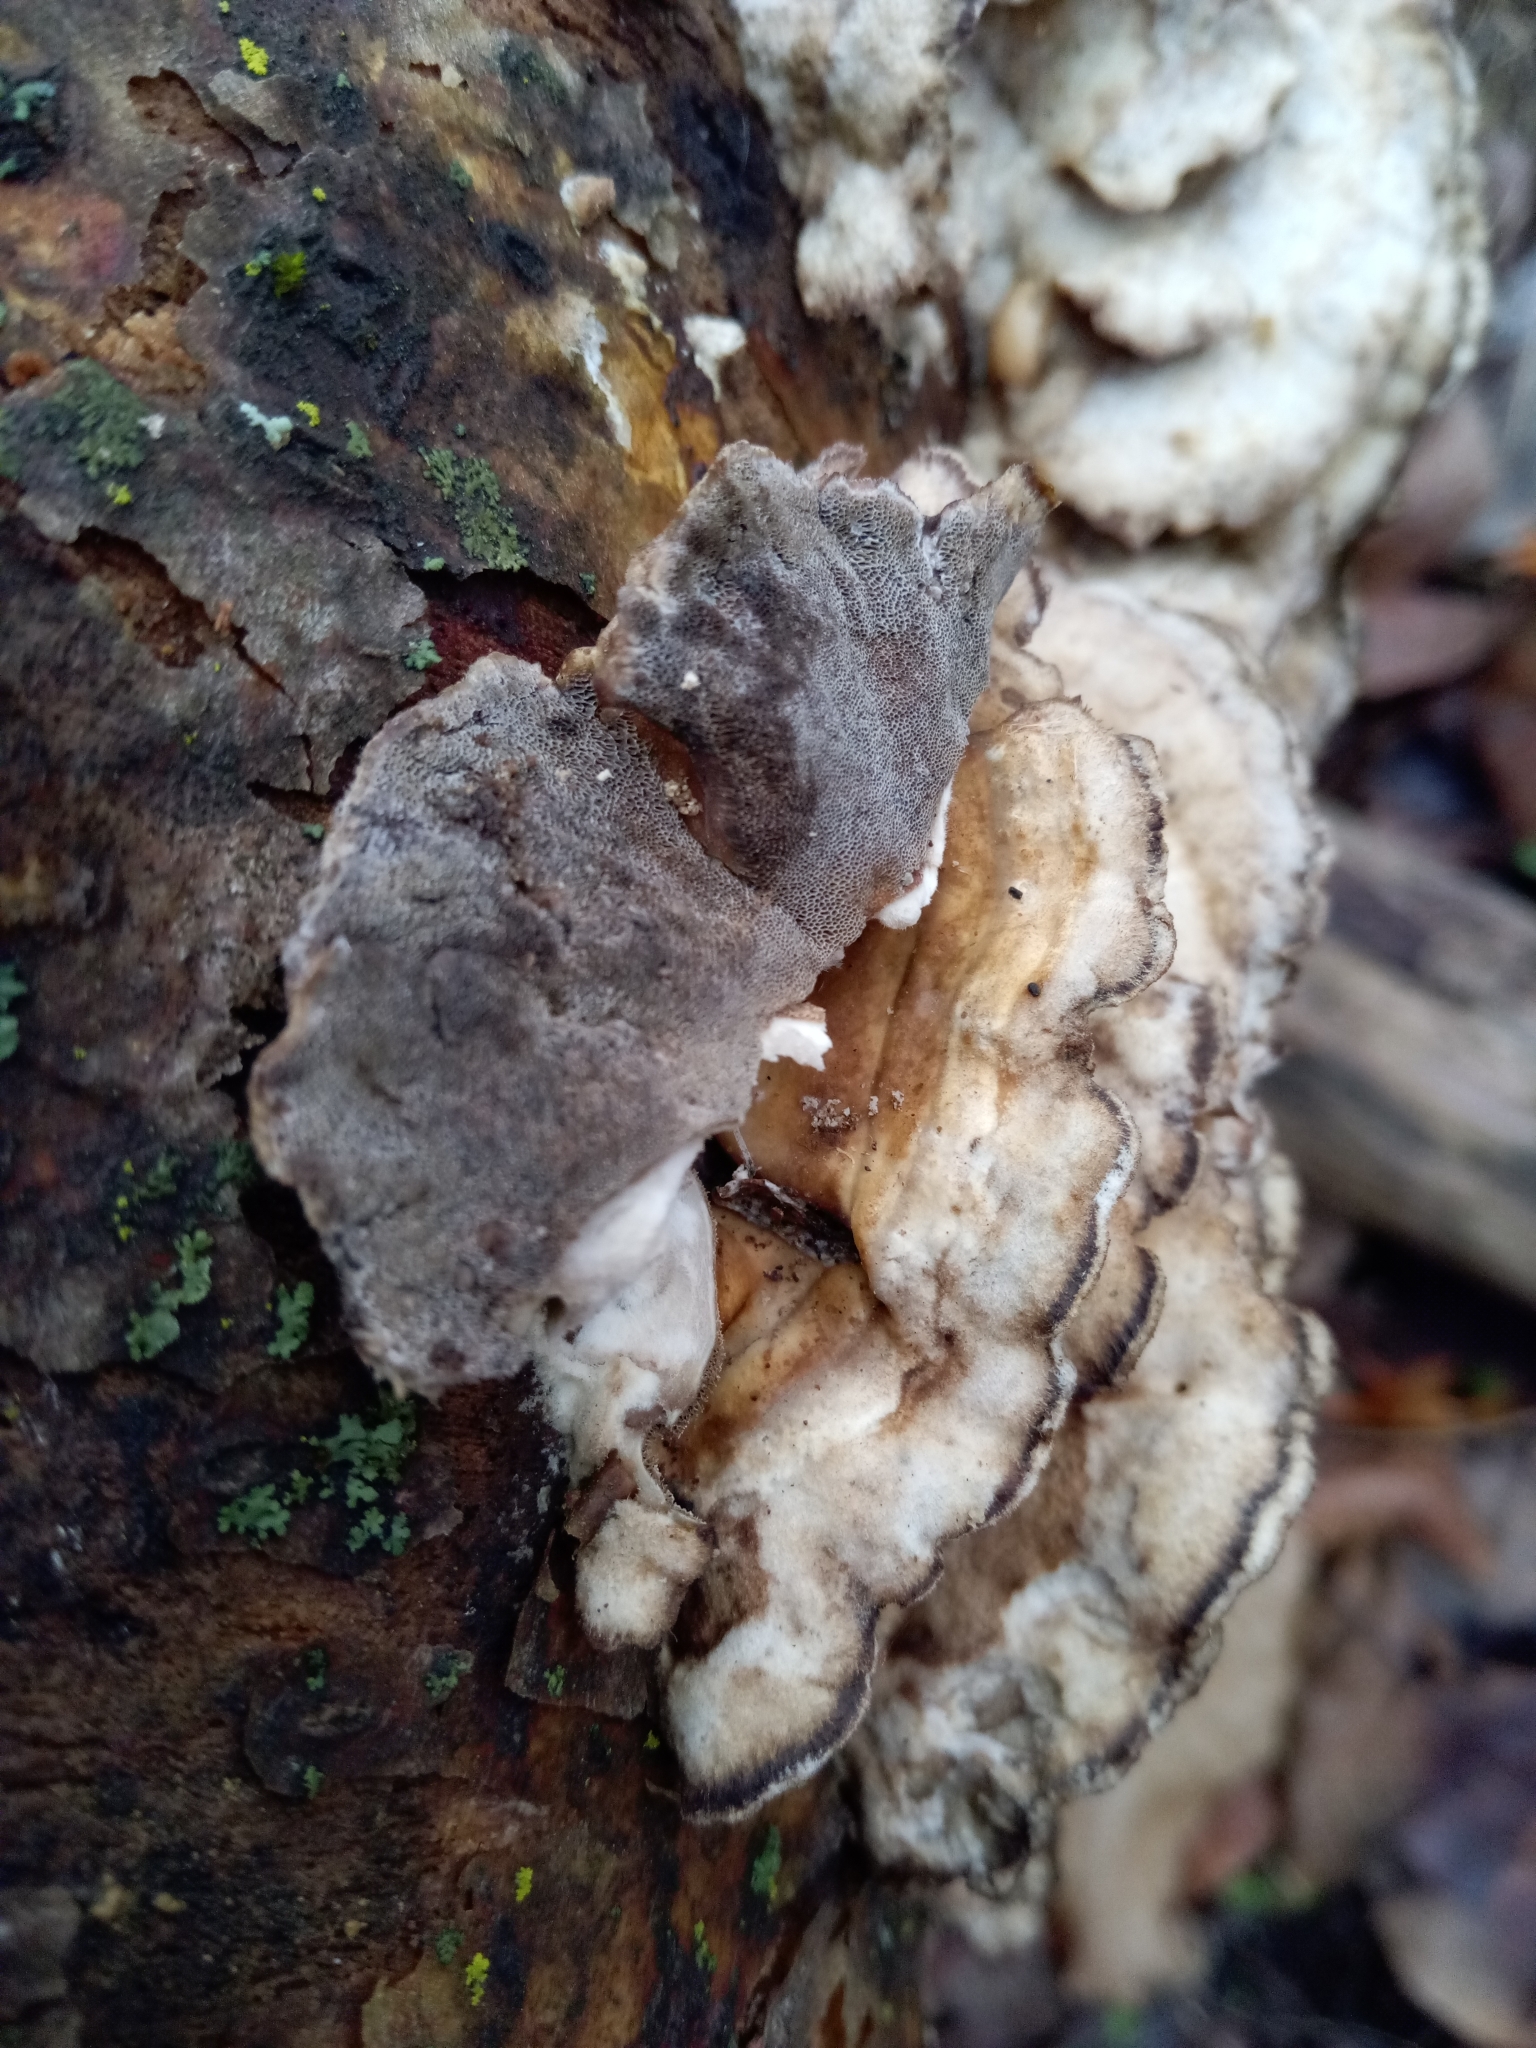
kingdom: Fungi
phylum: Basidiomycota
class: Agaricomycetes
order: Polyporales
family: Phanerochaetaceae
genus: Bjerkandera
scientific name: Bjerkandera adusta
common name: Smoky bracket
